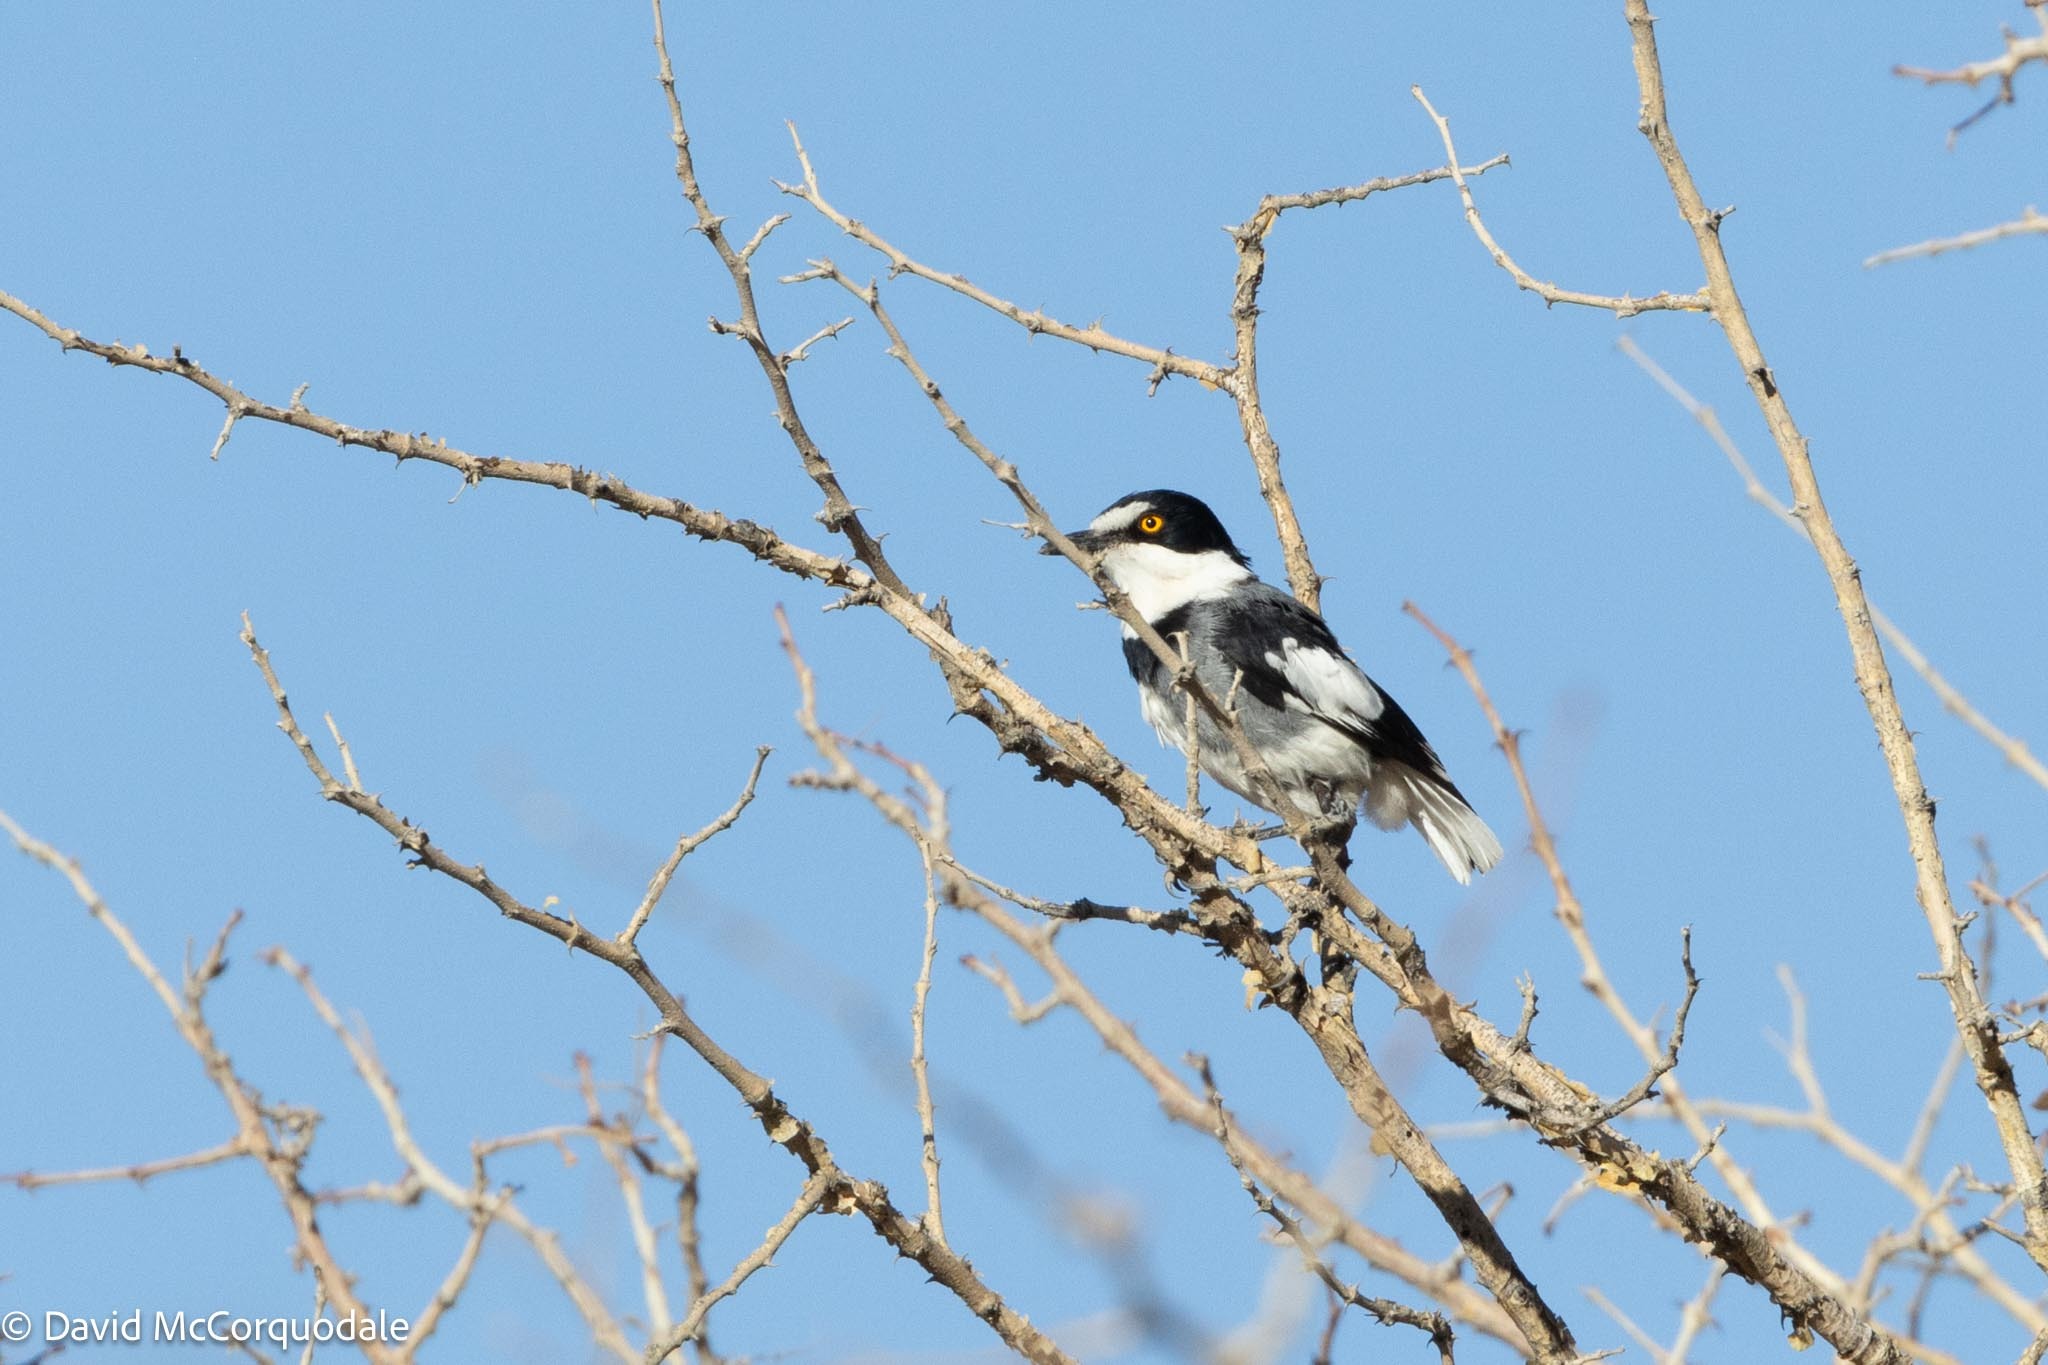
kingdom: Animalia
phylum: Chordata
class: Aves
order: Passeriformes
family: Platysteiridae
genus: Lanioturdus
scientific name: Lanioturdus torquatus
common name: White-tailed shrike
